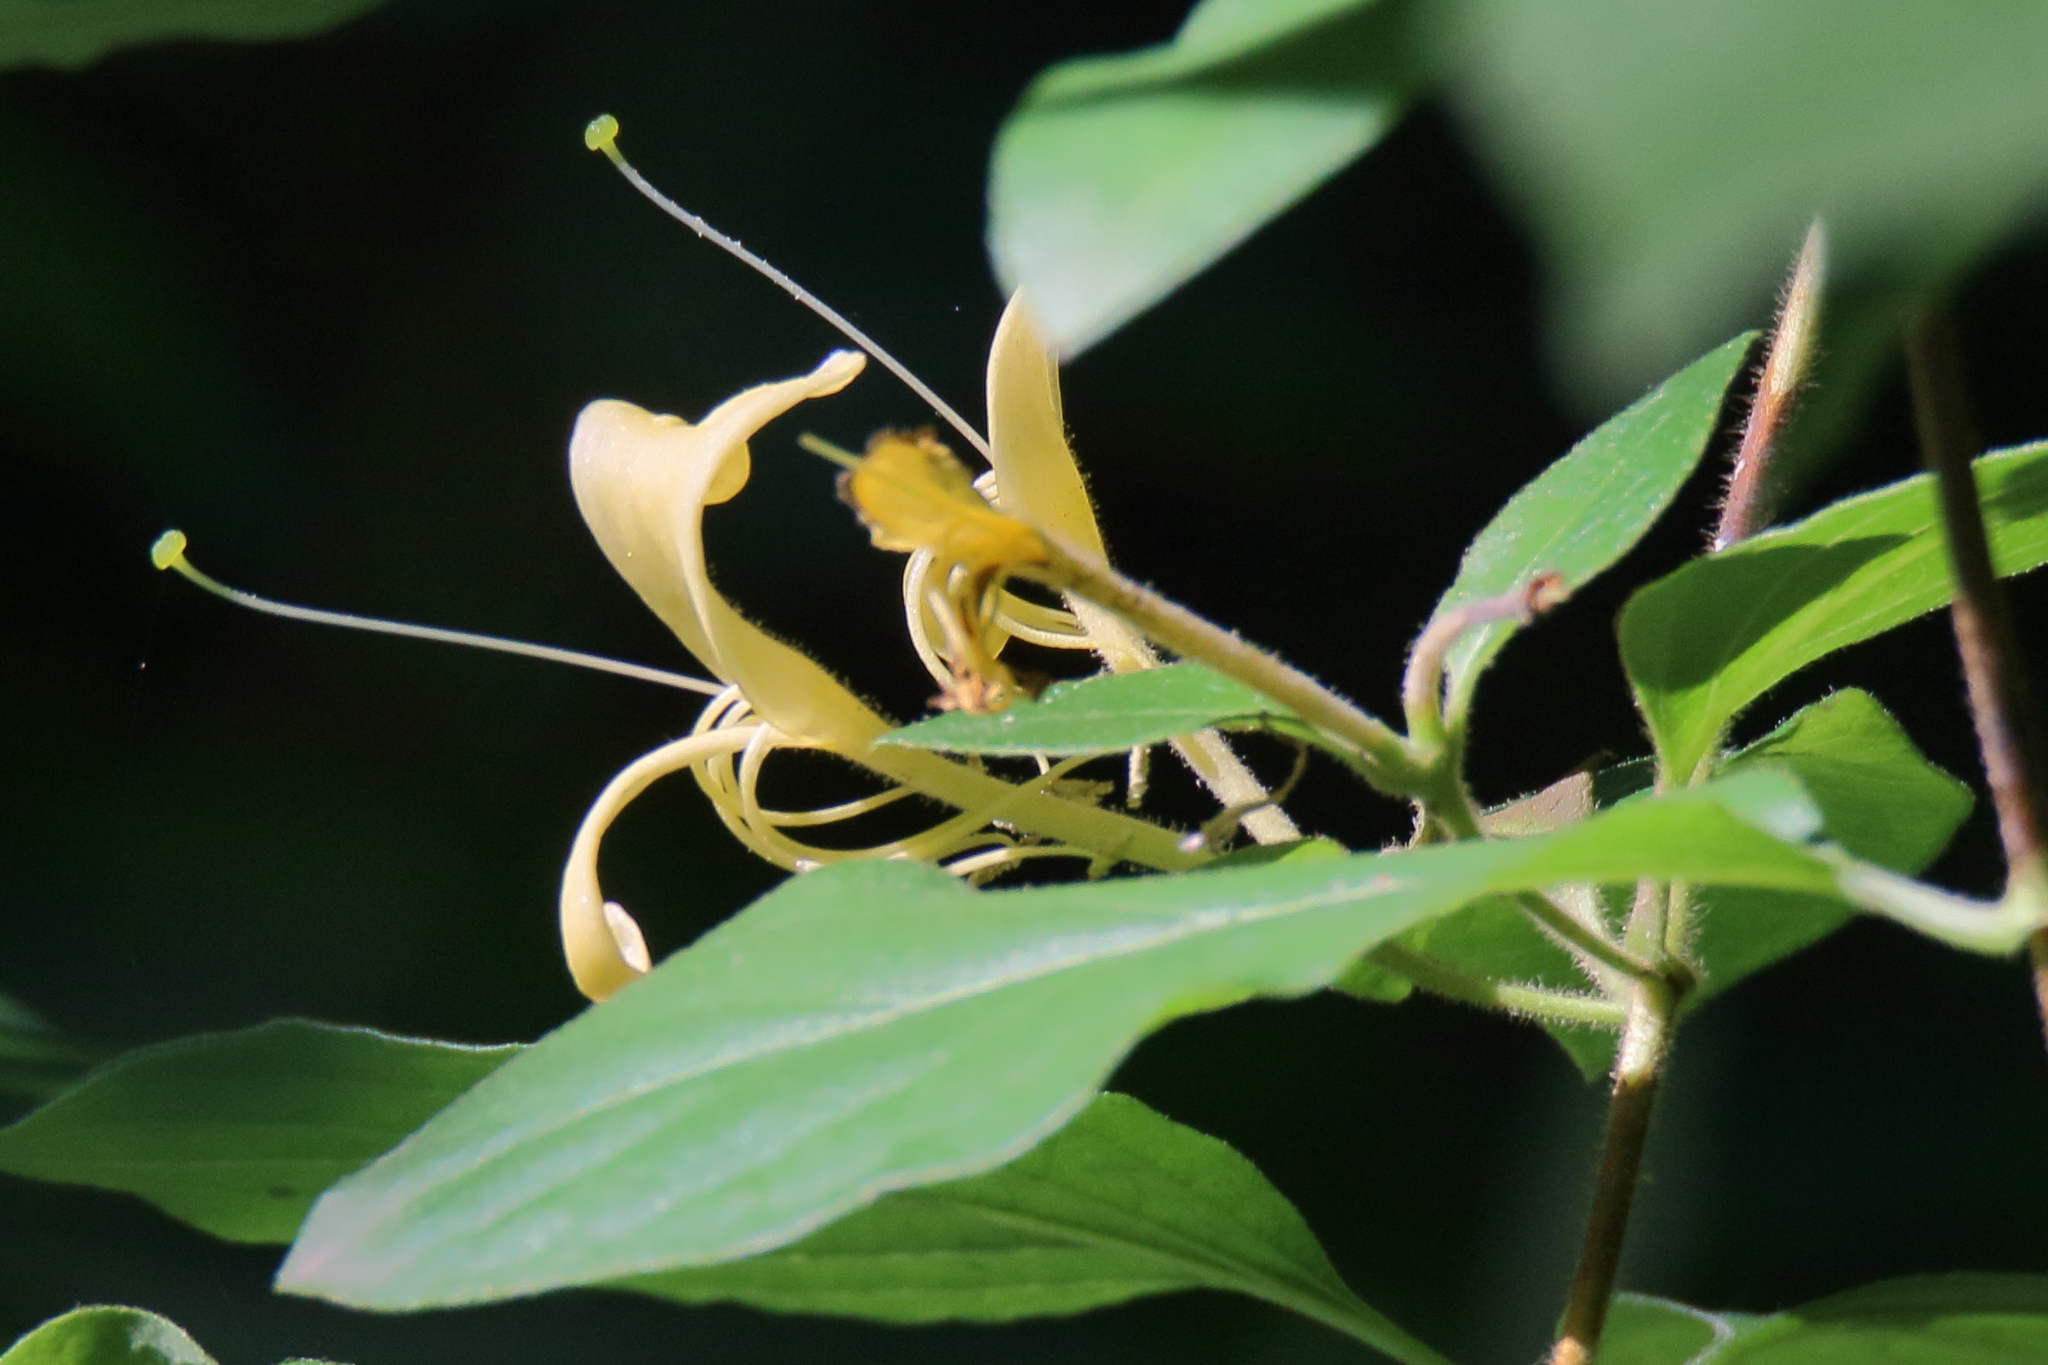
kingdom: Plantae
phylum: Tracheophyta
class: Magnoliopsida
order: Dipsacales
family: Caprifoliaceae
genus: Lonicera
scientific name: Lonicera japonica
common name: Japanese honeysuckle
